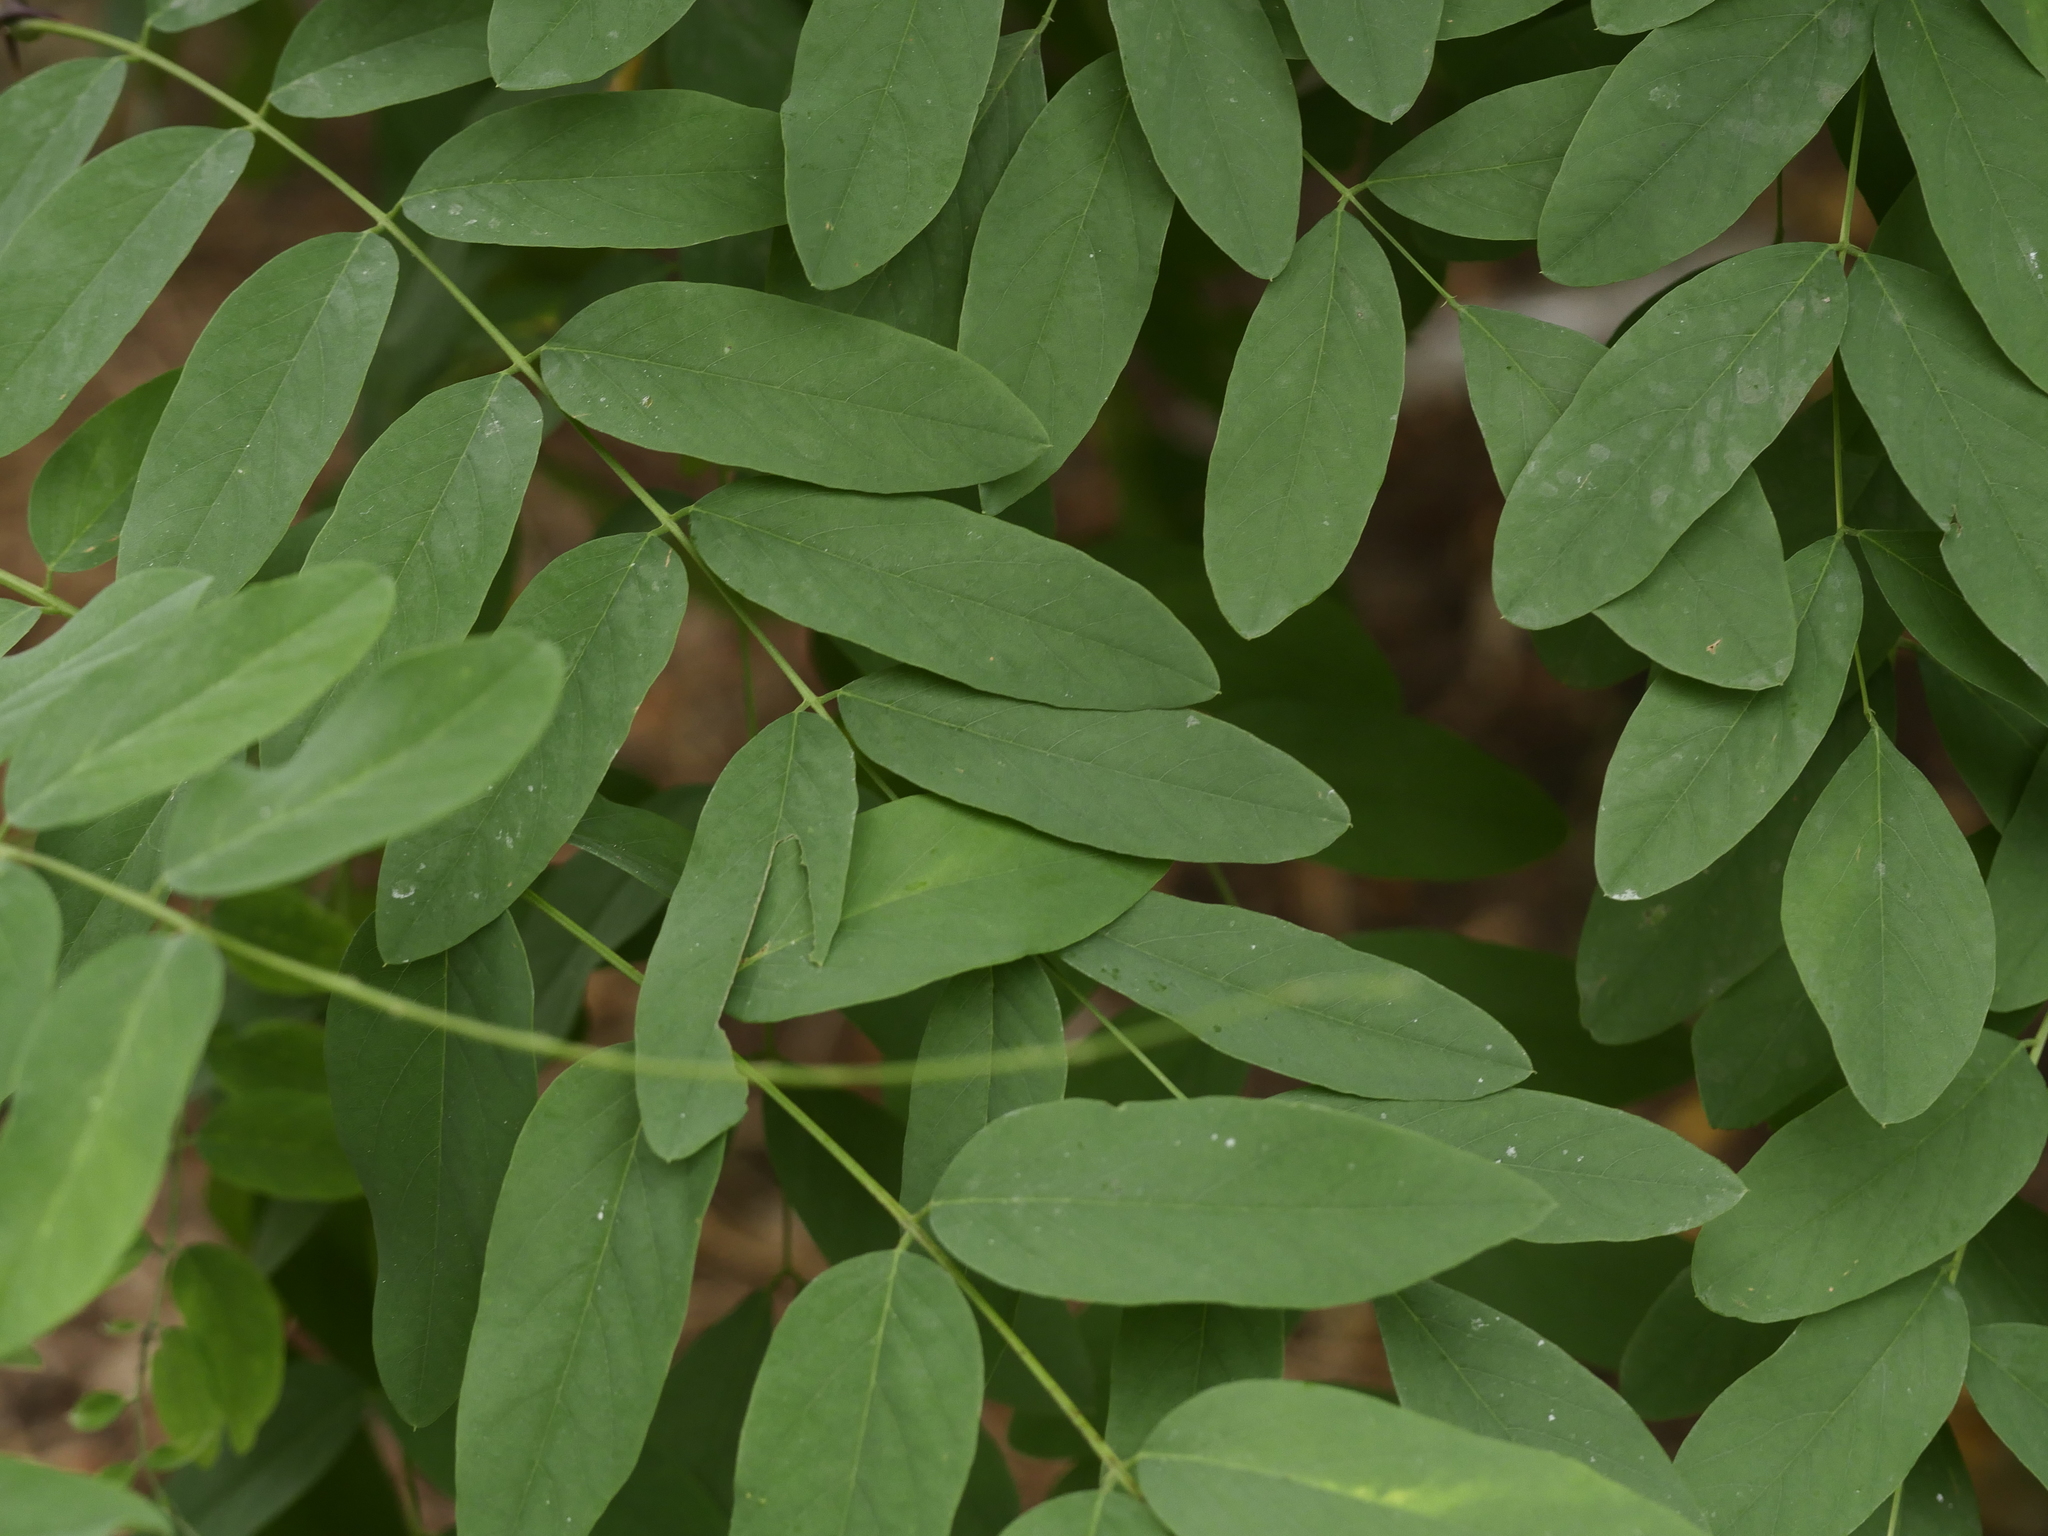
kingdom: Plantae
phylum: Tracheophyta
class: Magnoliopsida
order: Fabales
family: Fabaceae
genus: Robinia
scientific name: Robinia pseudoacacia
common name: Black locust
